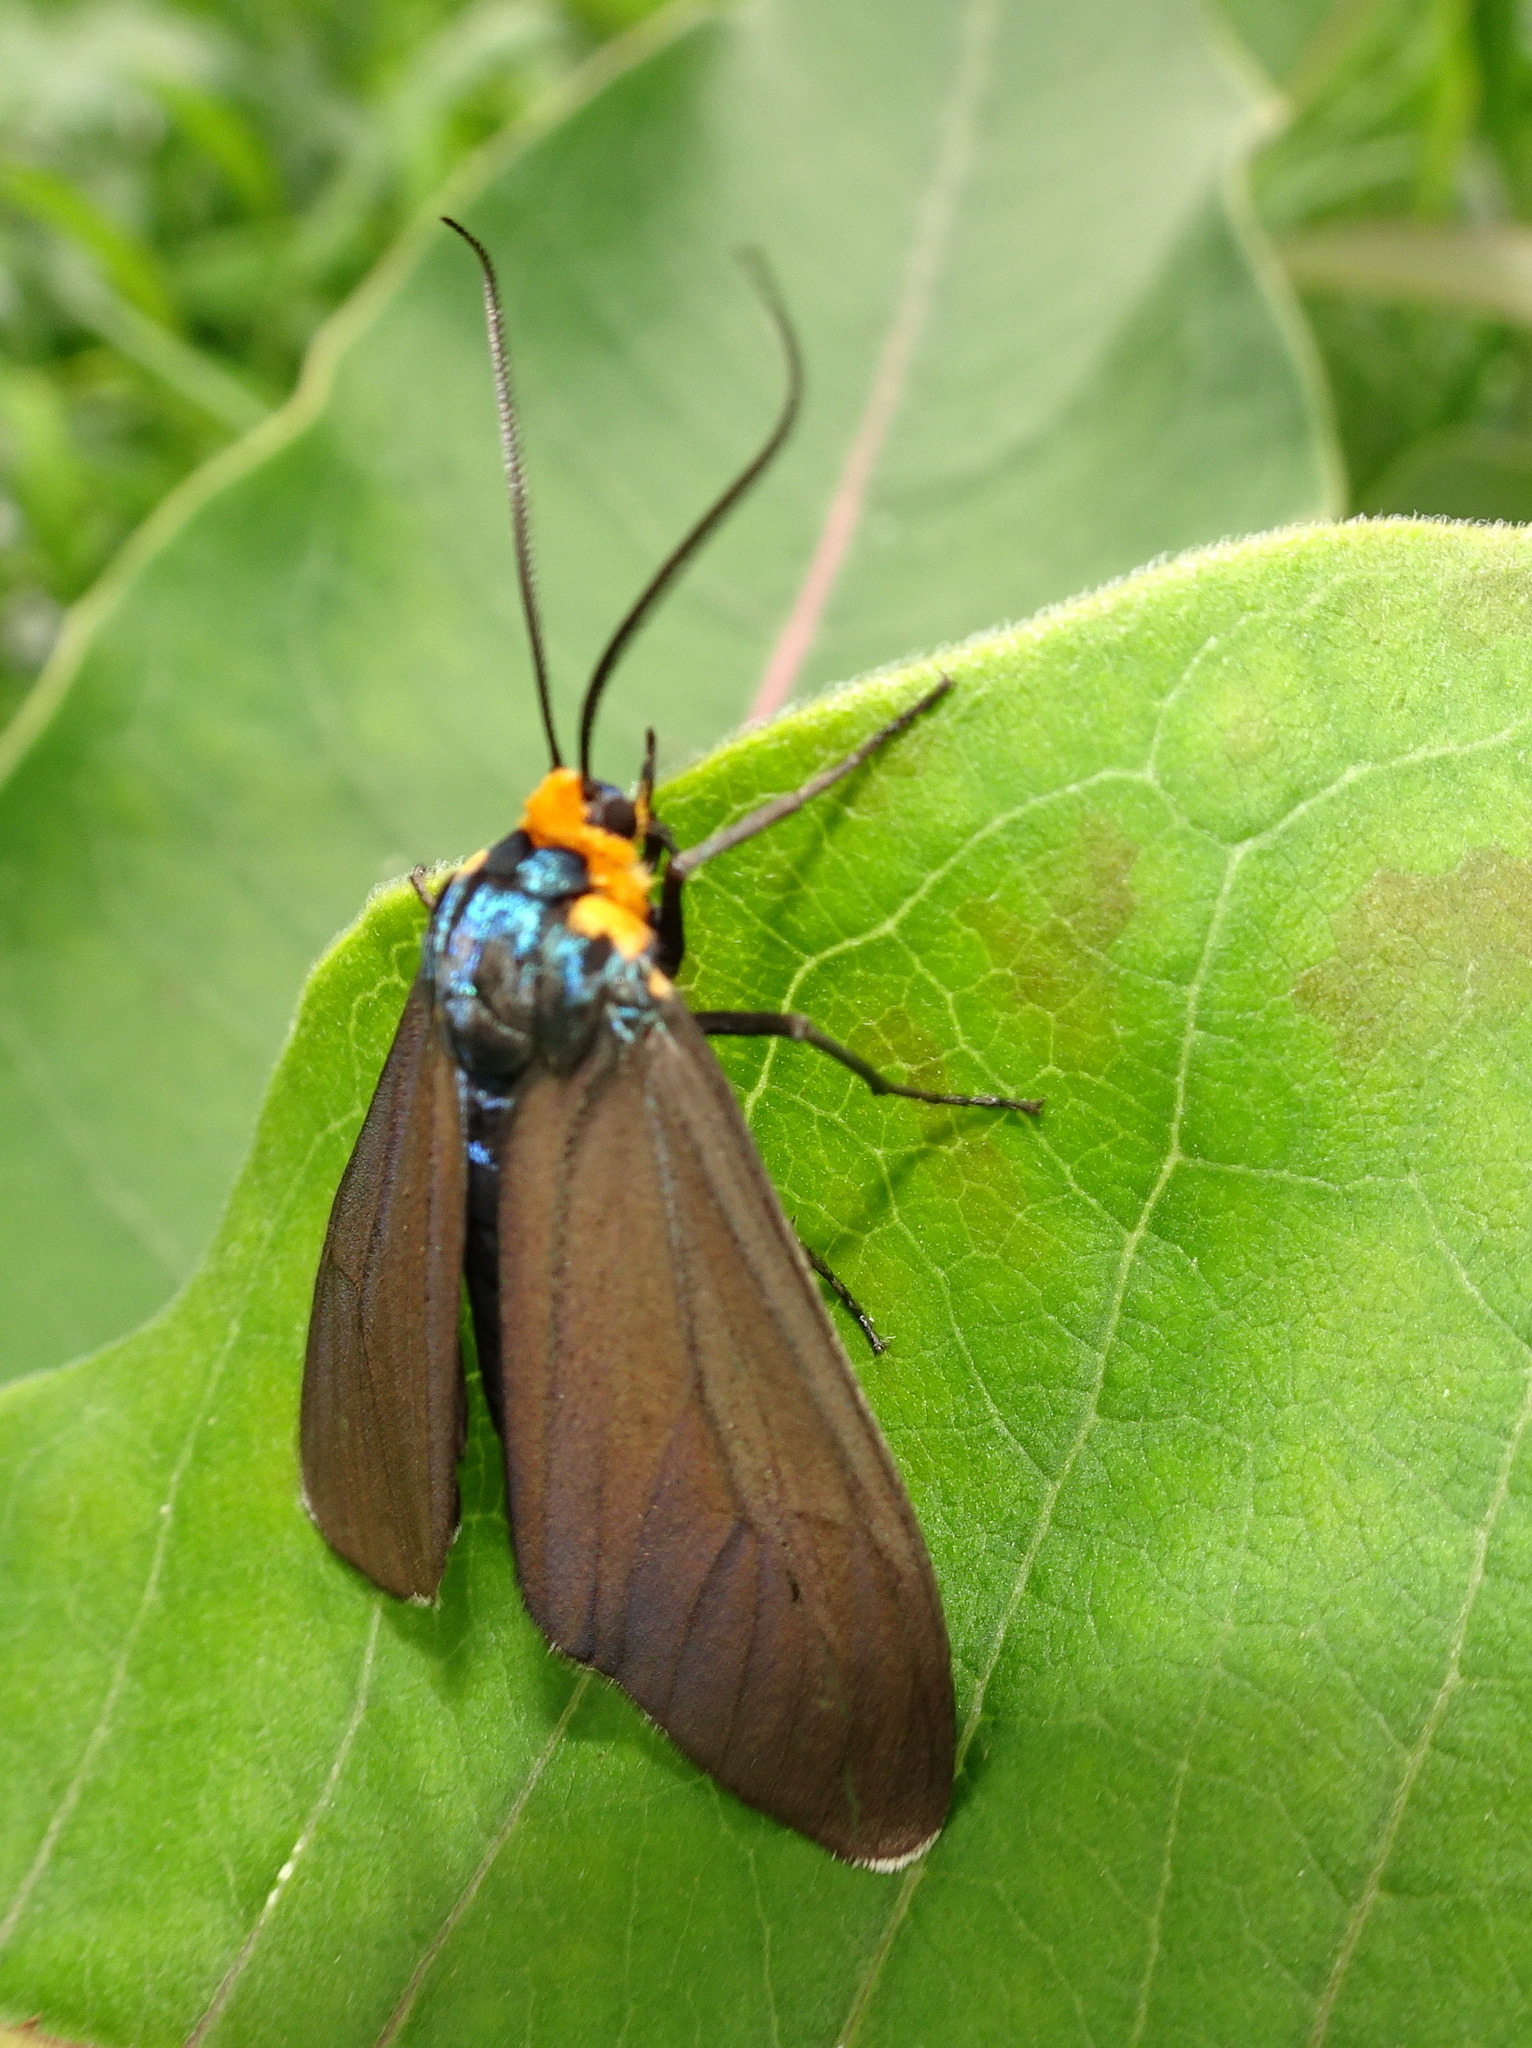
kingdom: Animalia
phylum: Arthropoda
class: Insecta
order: Lepidoptera
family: Erebidae
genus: Ctenucha
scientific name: Ctenucha virginica
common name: Virginia ctenucha moth
